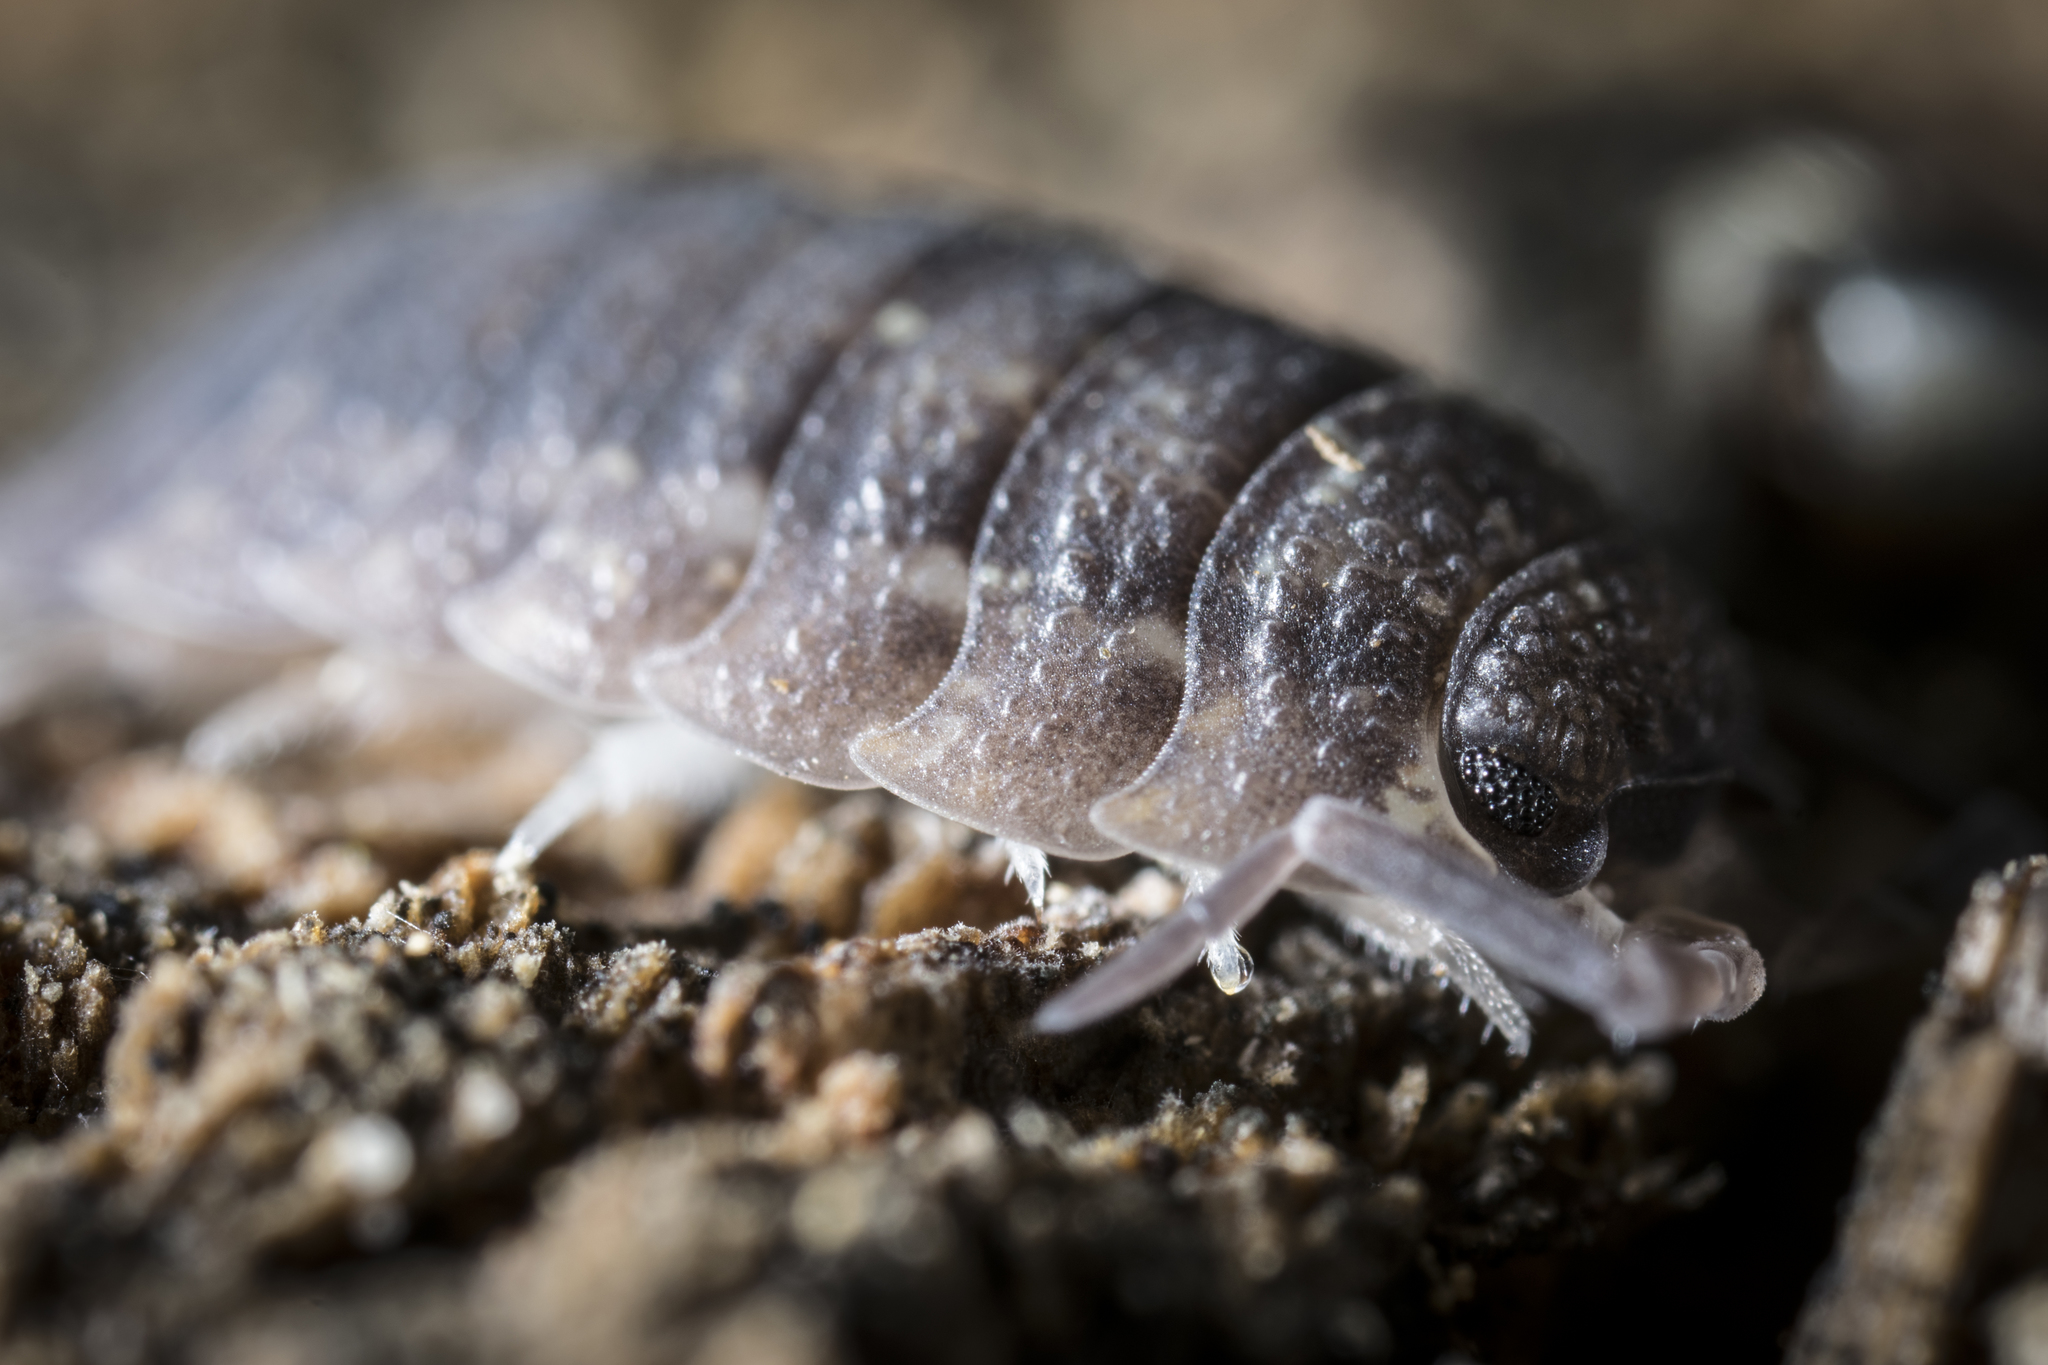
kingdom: Animalia
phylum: Arthropoda
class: Malacostraca
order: Isopoda
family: Porcellionidae
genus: Porcellio
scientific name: Porcellio scaber
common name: Common rough woodlouse
